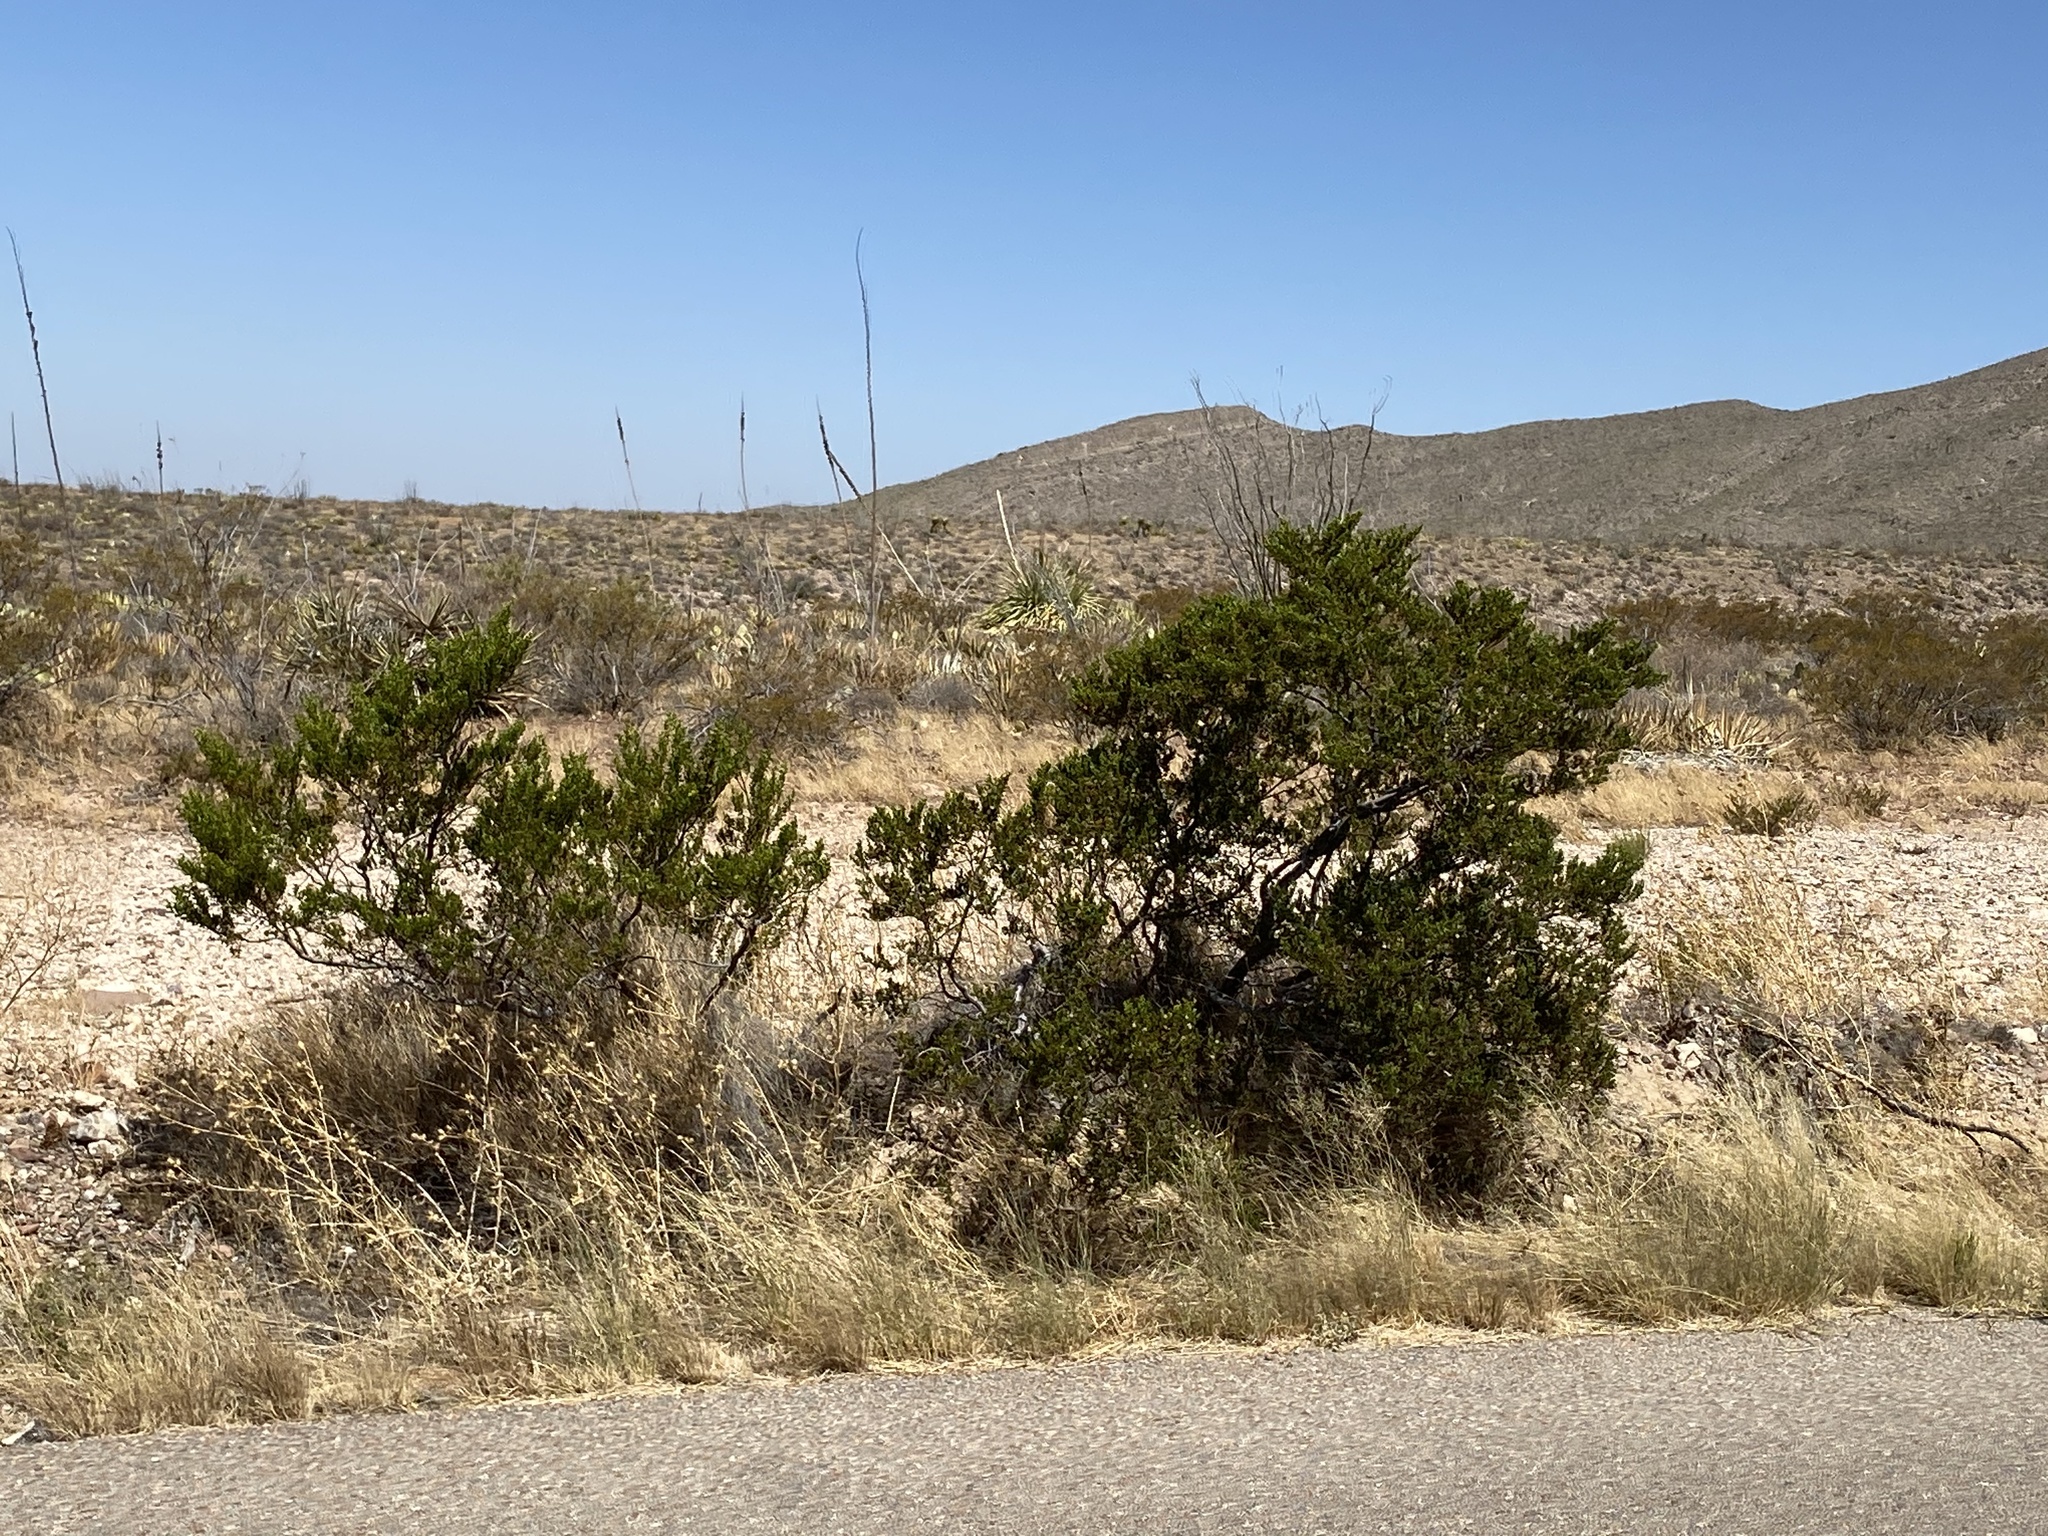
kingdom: Plantae
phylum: Tracheophyta
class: Magnoliopsida
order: Zygophyllales
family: Zygophyllaceae
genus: Larrea
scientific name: Larrea tridentata
